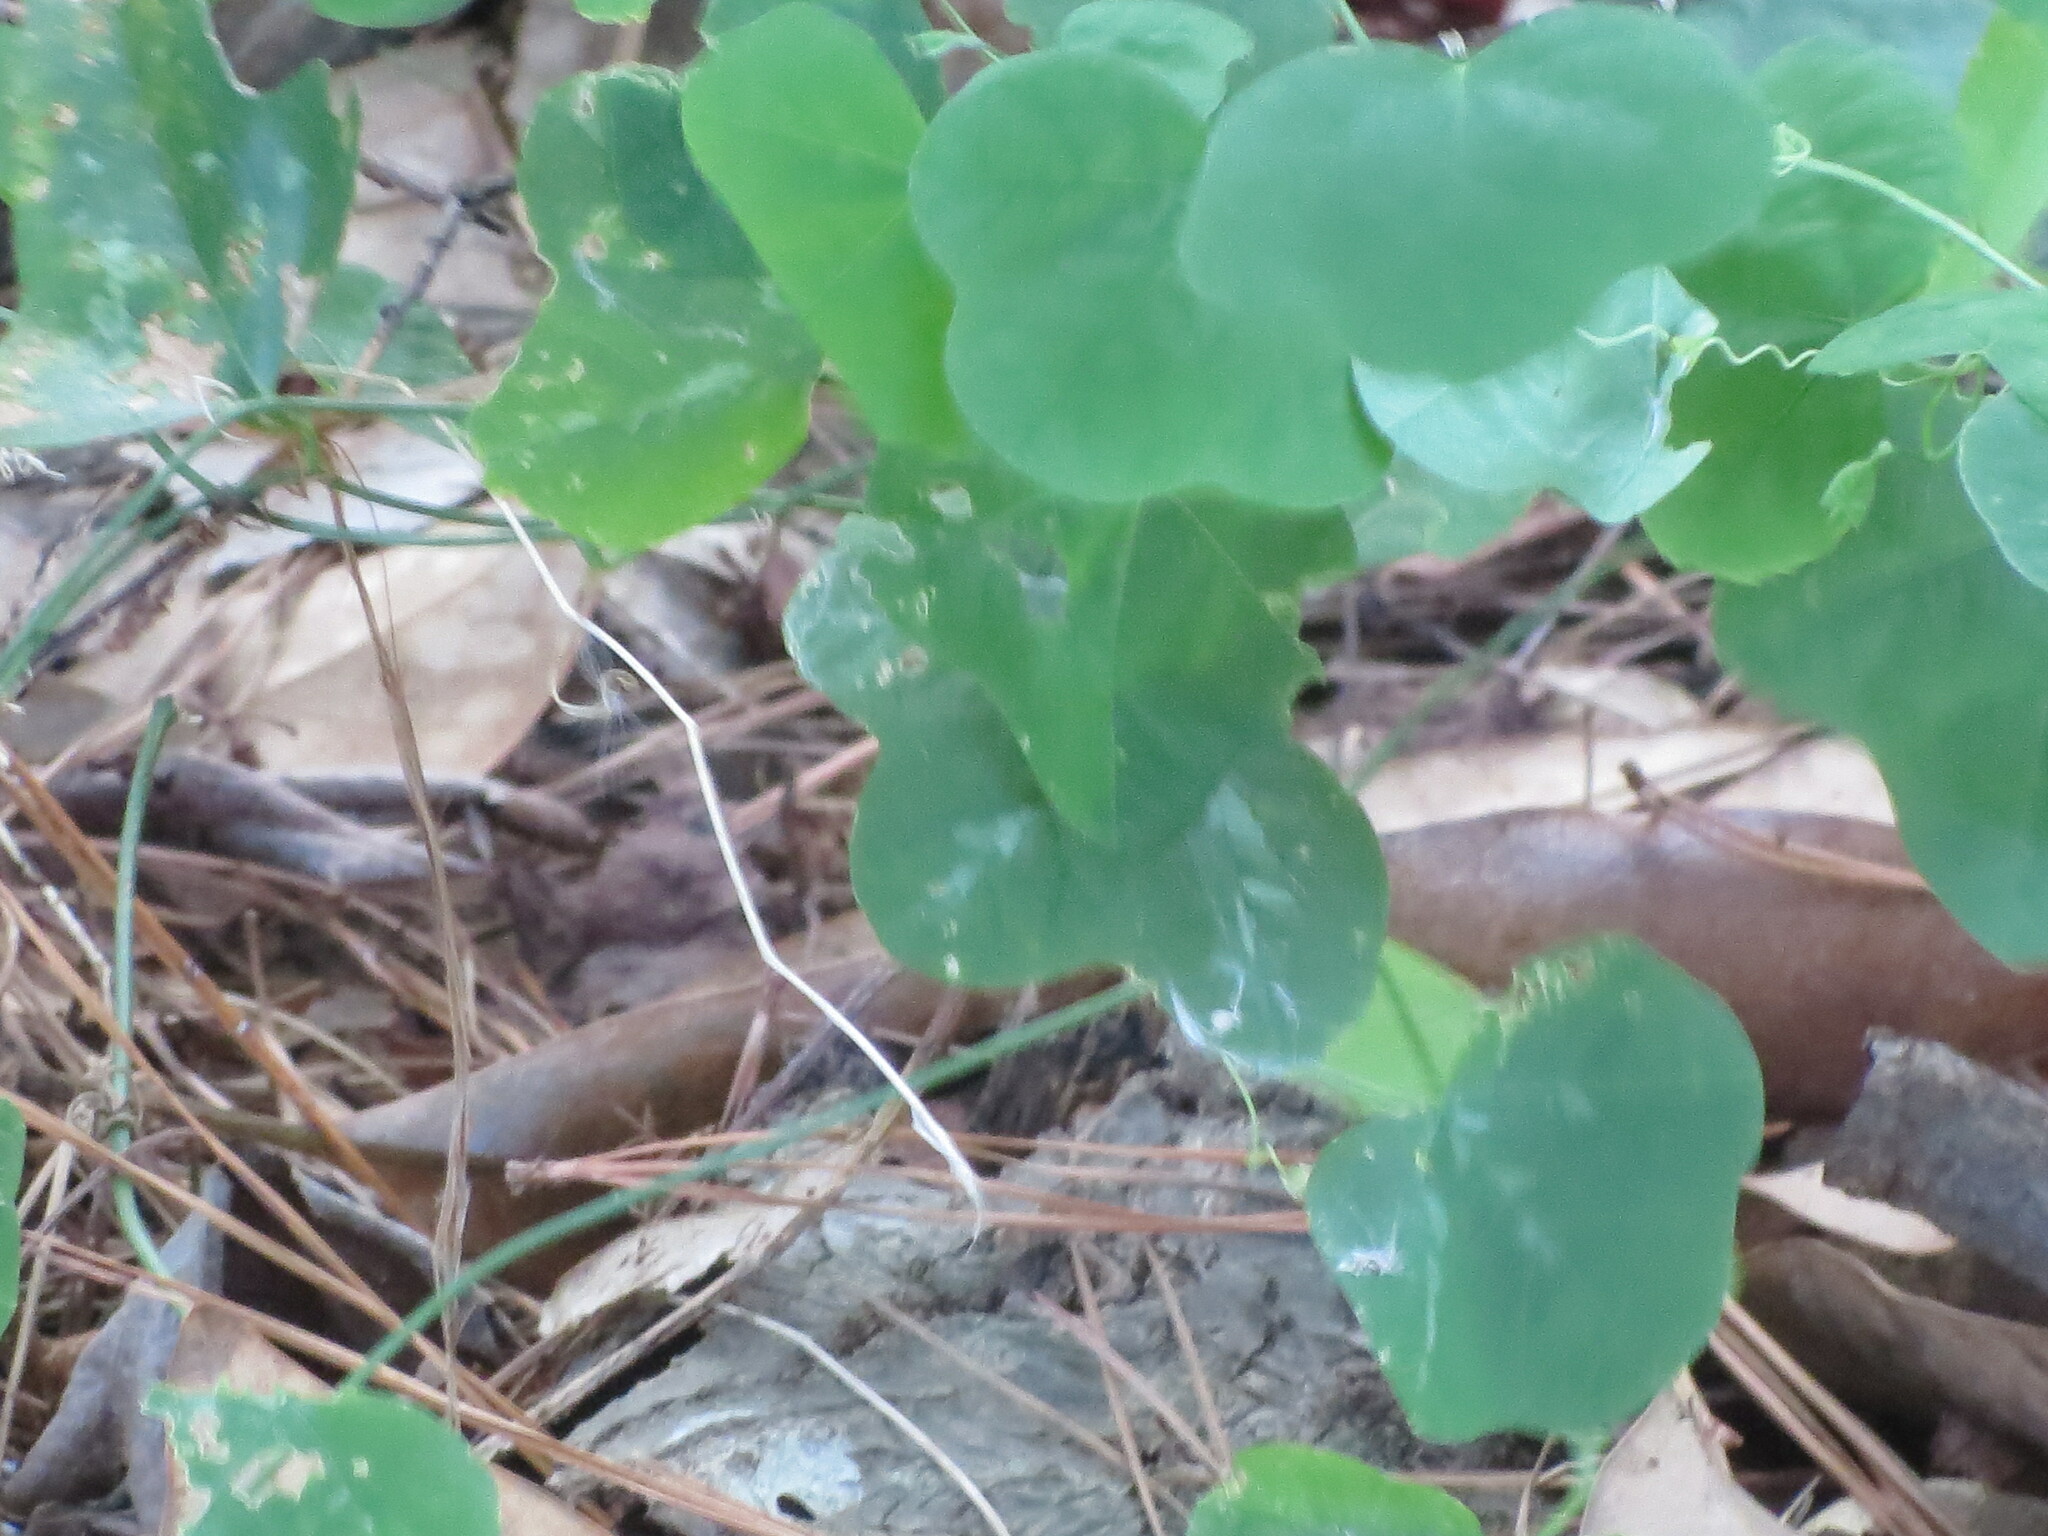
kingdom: Plantae
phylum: Tracheophyta
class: Magnoliopsida
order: Malpighiales
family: Passifloraceae
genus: Passiflora
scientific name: Passiflora lutea
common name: Yellow passionflower
